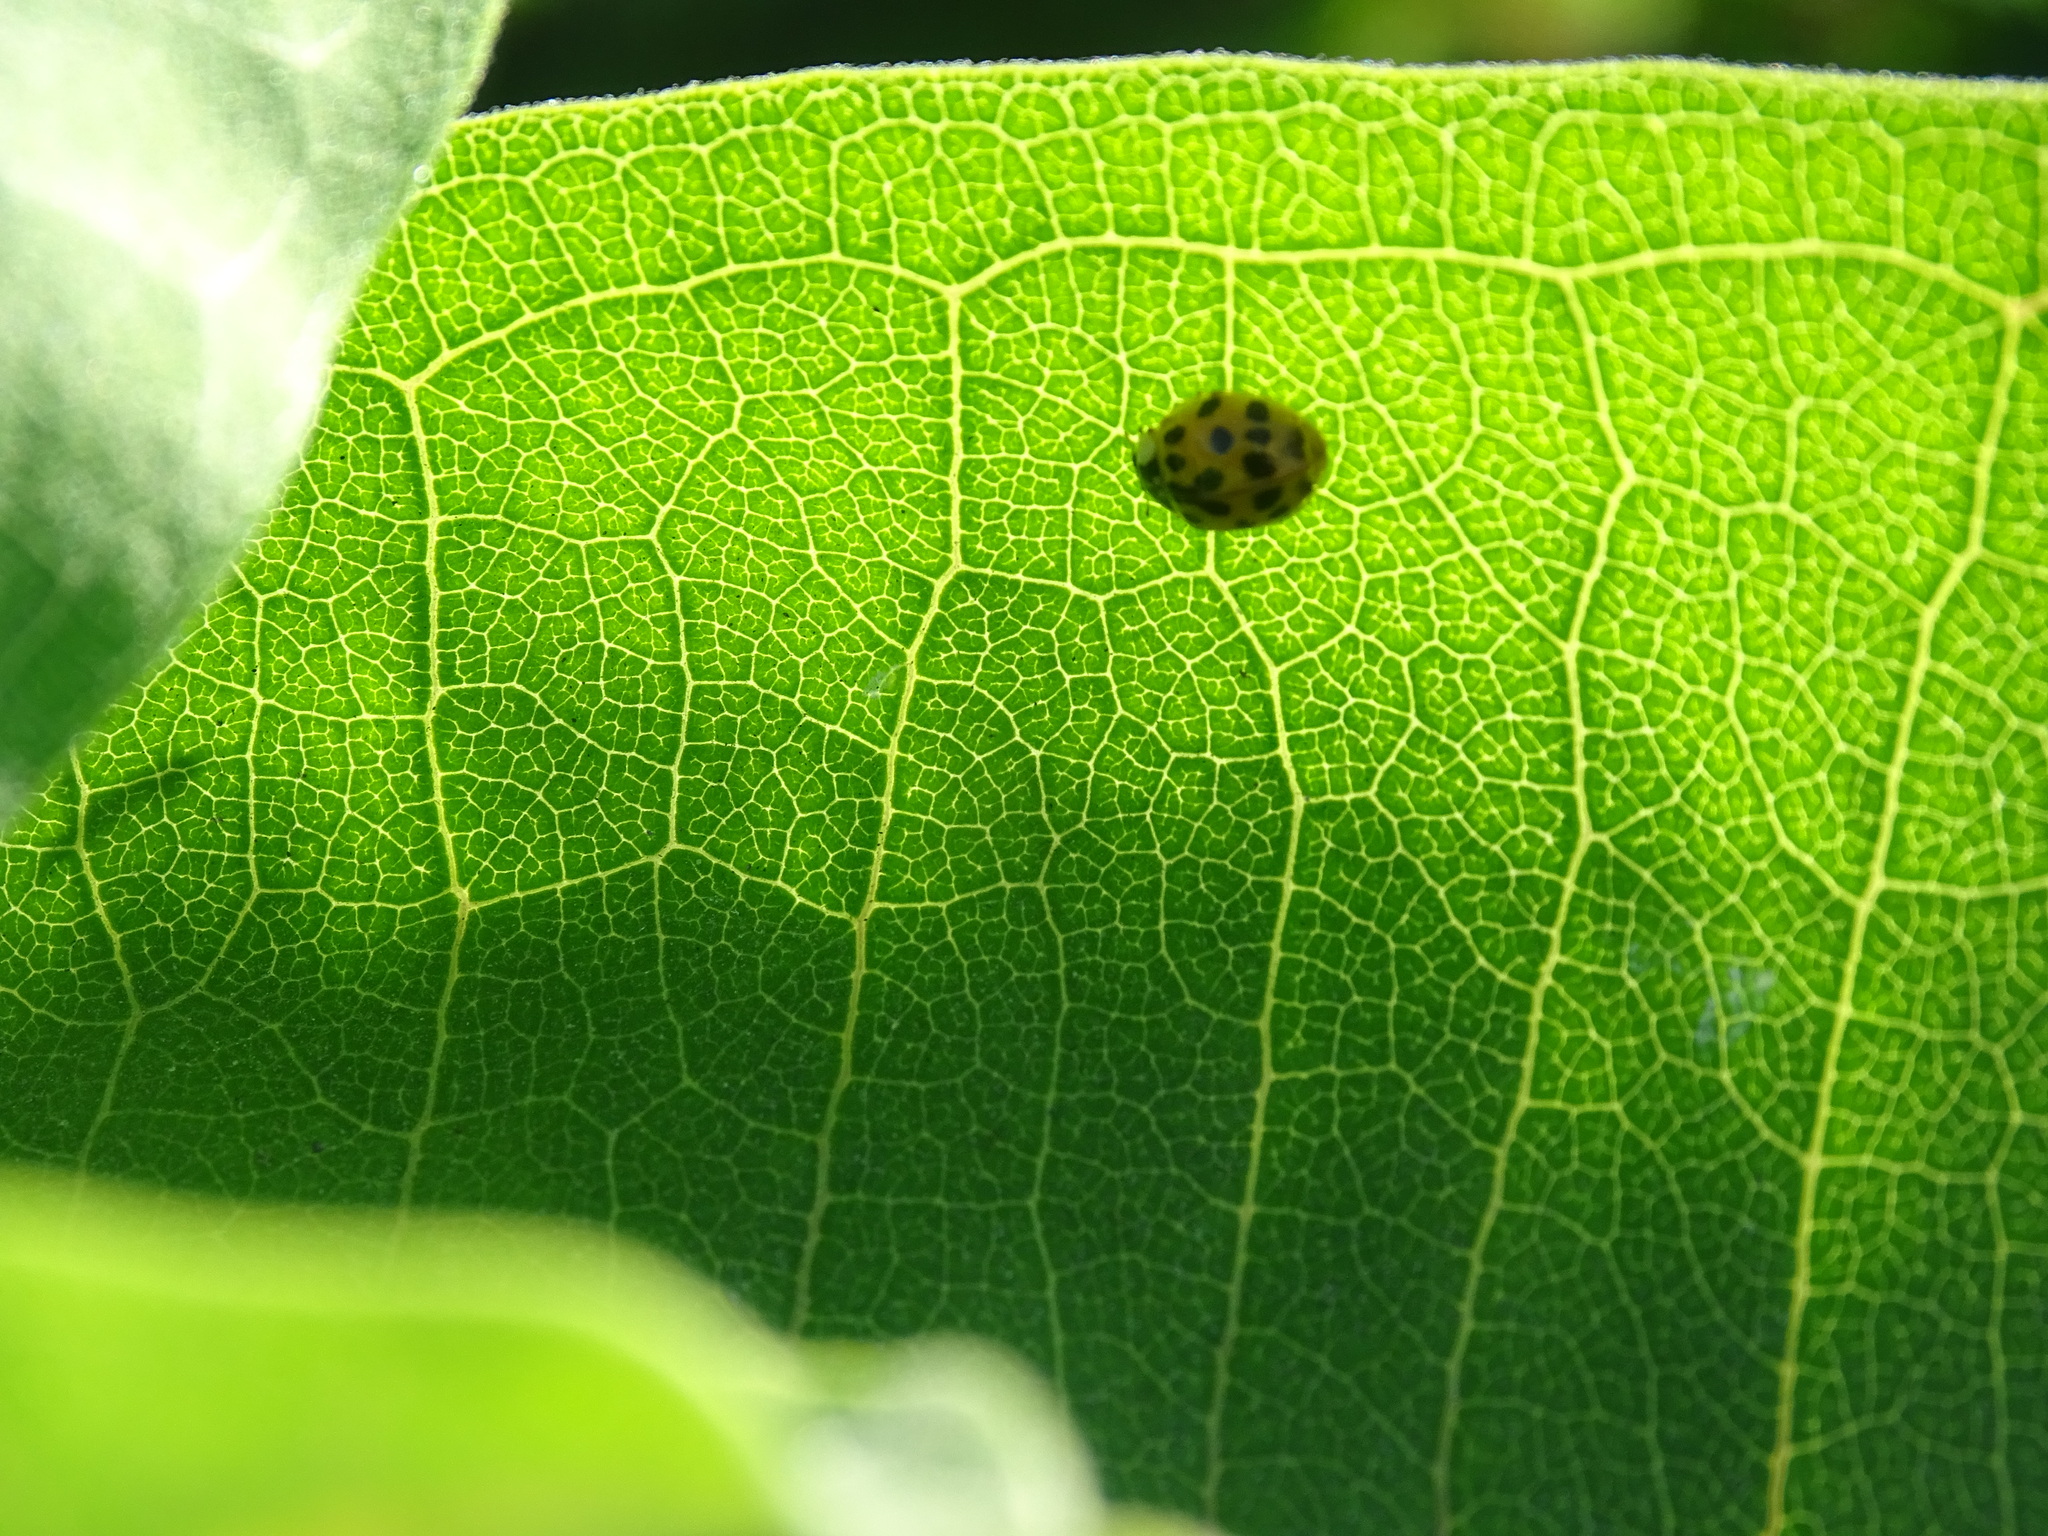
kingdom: Animalia
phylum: Arthropoda
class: Insecta
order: Coleoptera
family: Coccinellidae
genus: Harmonia
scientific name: Harmonia axyridis
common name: Harlequin ladybird
